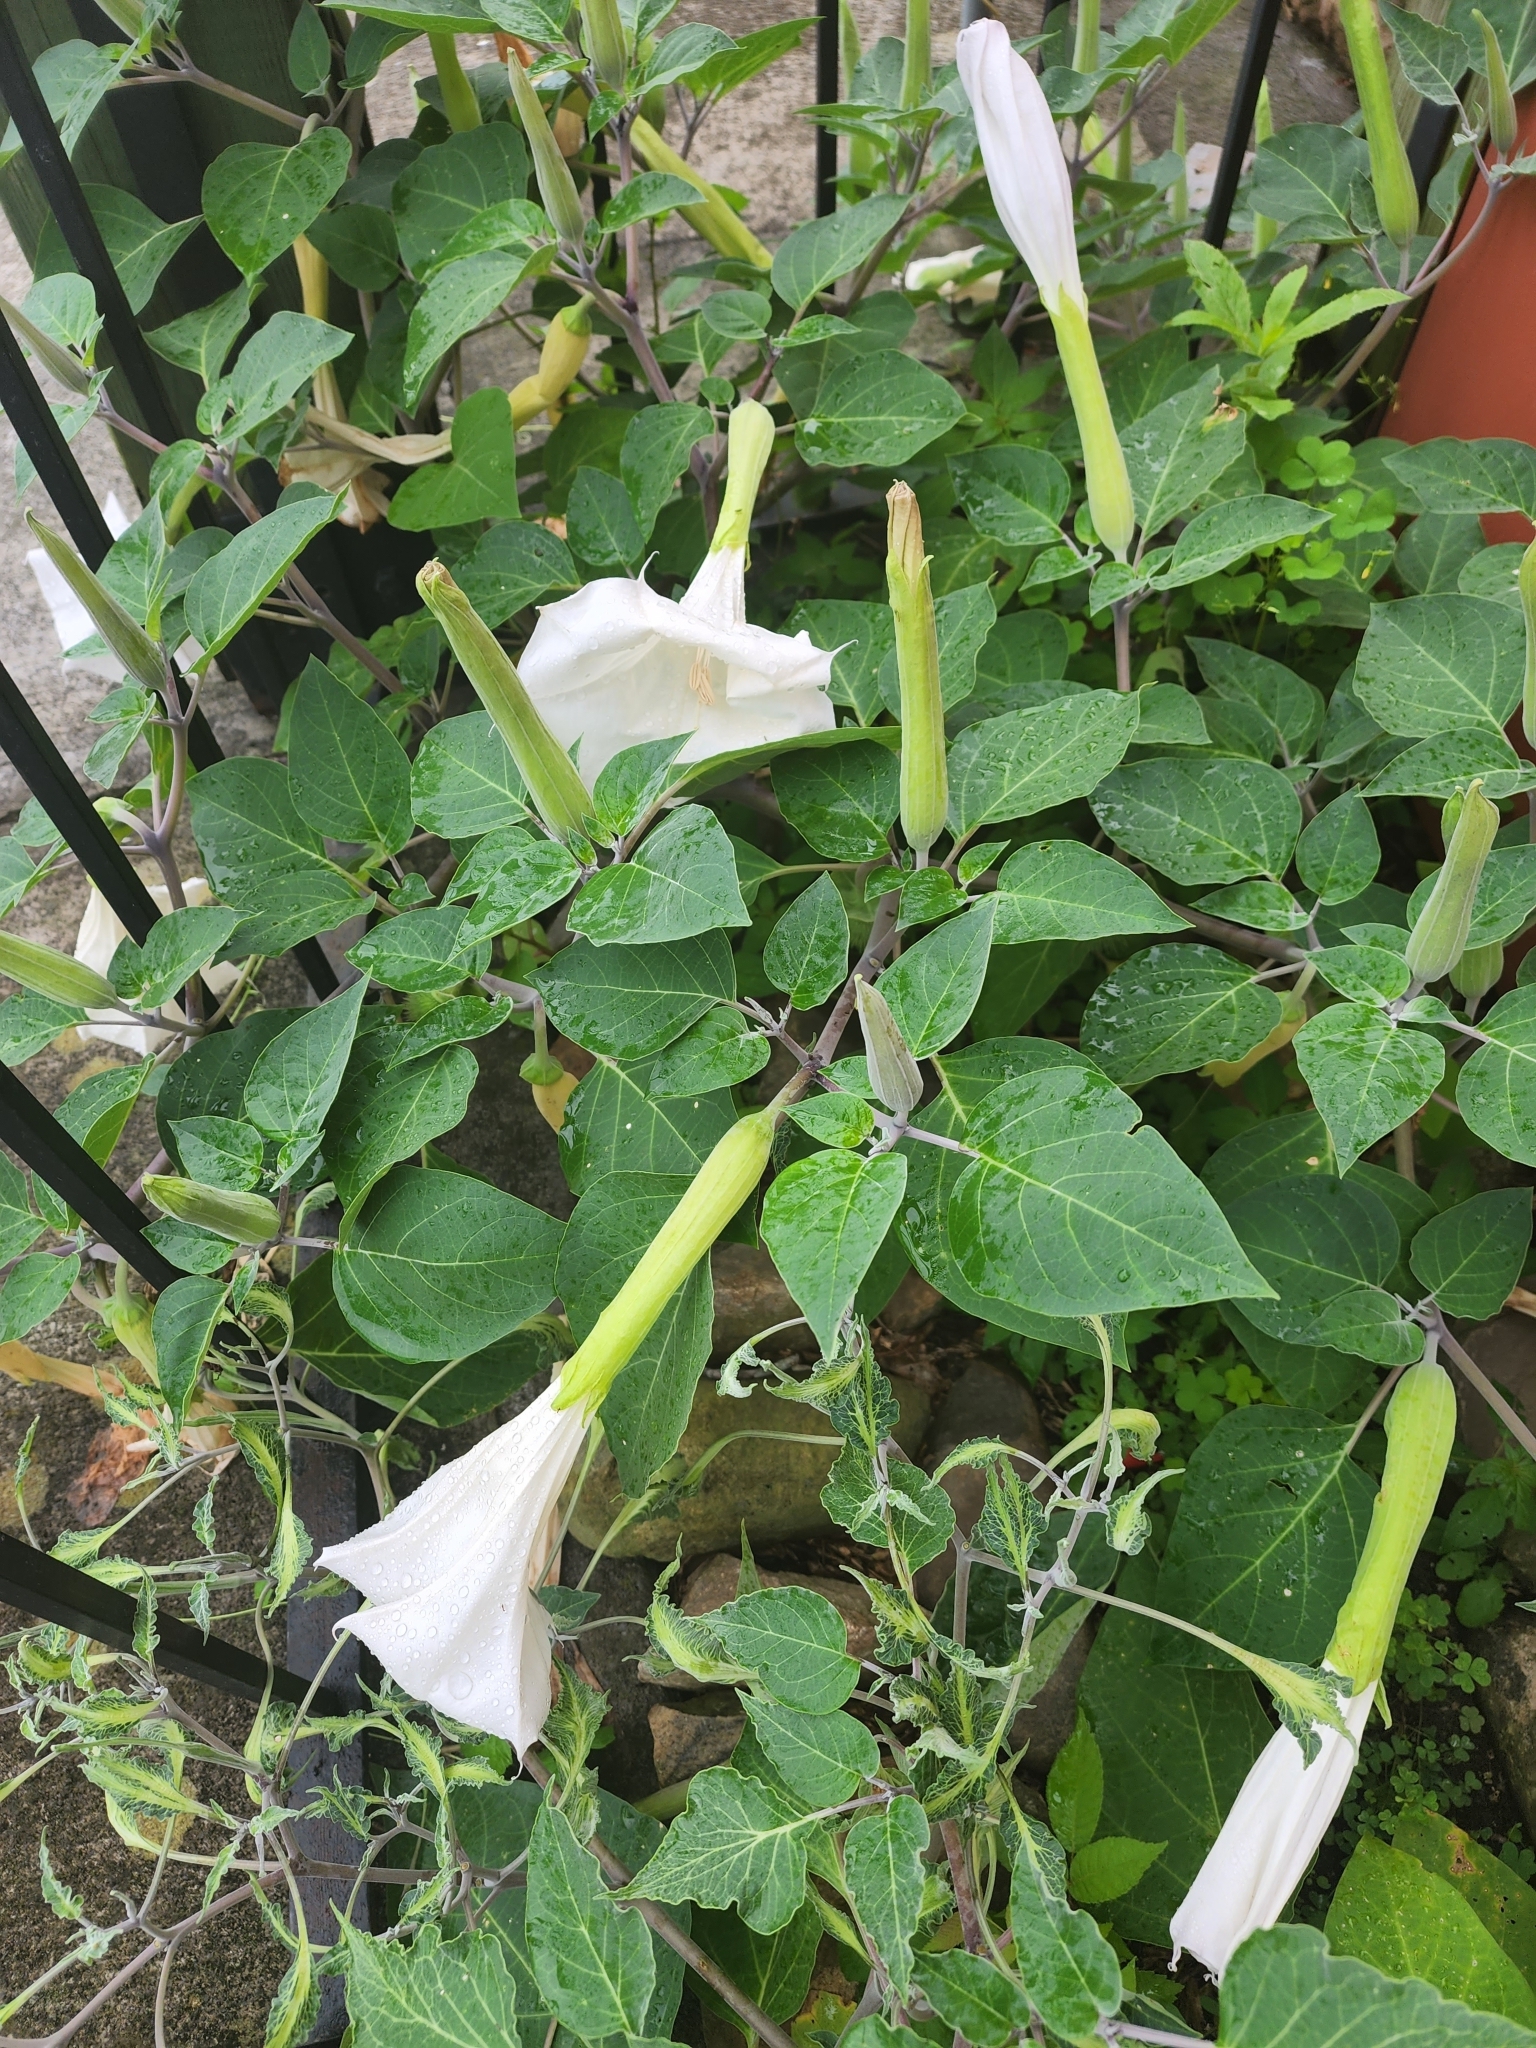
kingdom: Plantae
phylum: Tracheophyta
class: Magnoliopsida
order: Solanales
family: Solanaceae
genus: Datura
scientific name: Datura wrightii
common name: Sacred thorn-apple
